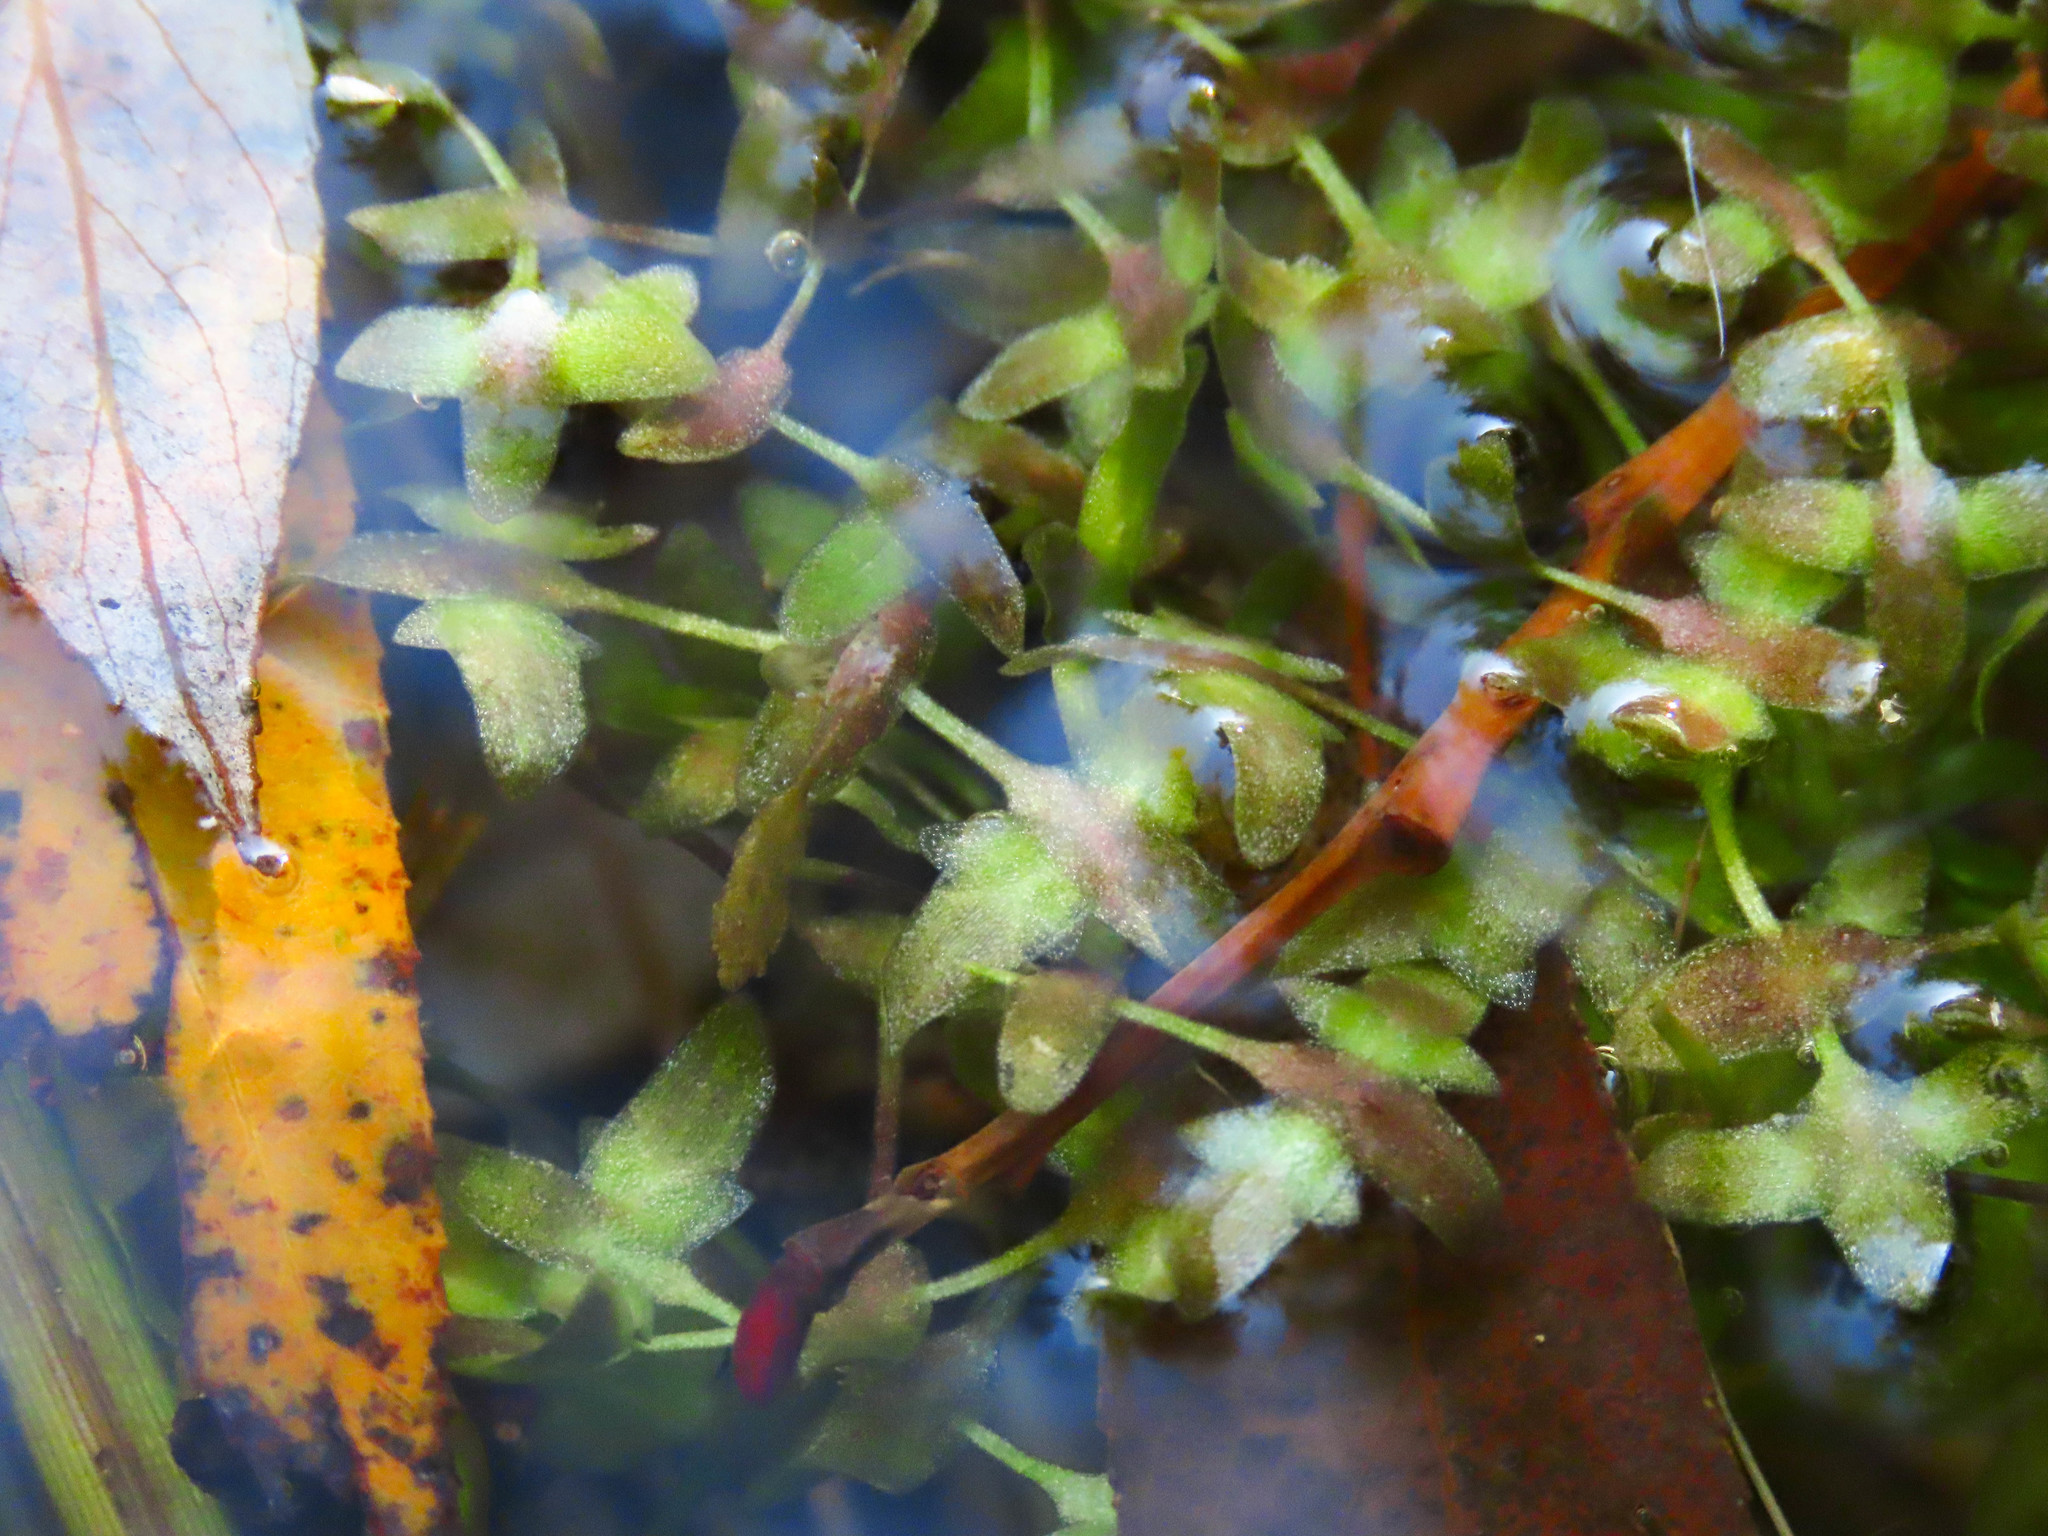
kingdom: Plantae
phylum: Tracheophyta
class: Liliopsida
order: Alismatales
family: Araceae
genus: Lemna
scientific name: Lemna trisulca
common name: Ivy-leaved duckweed
